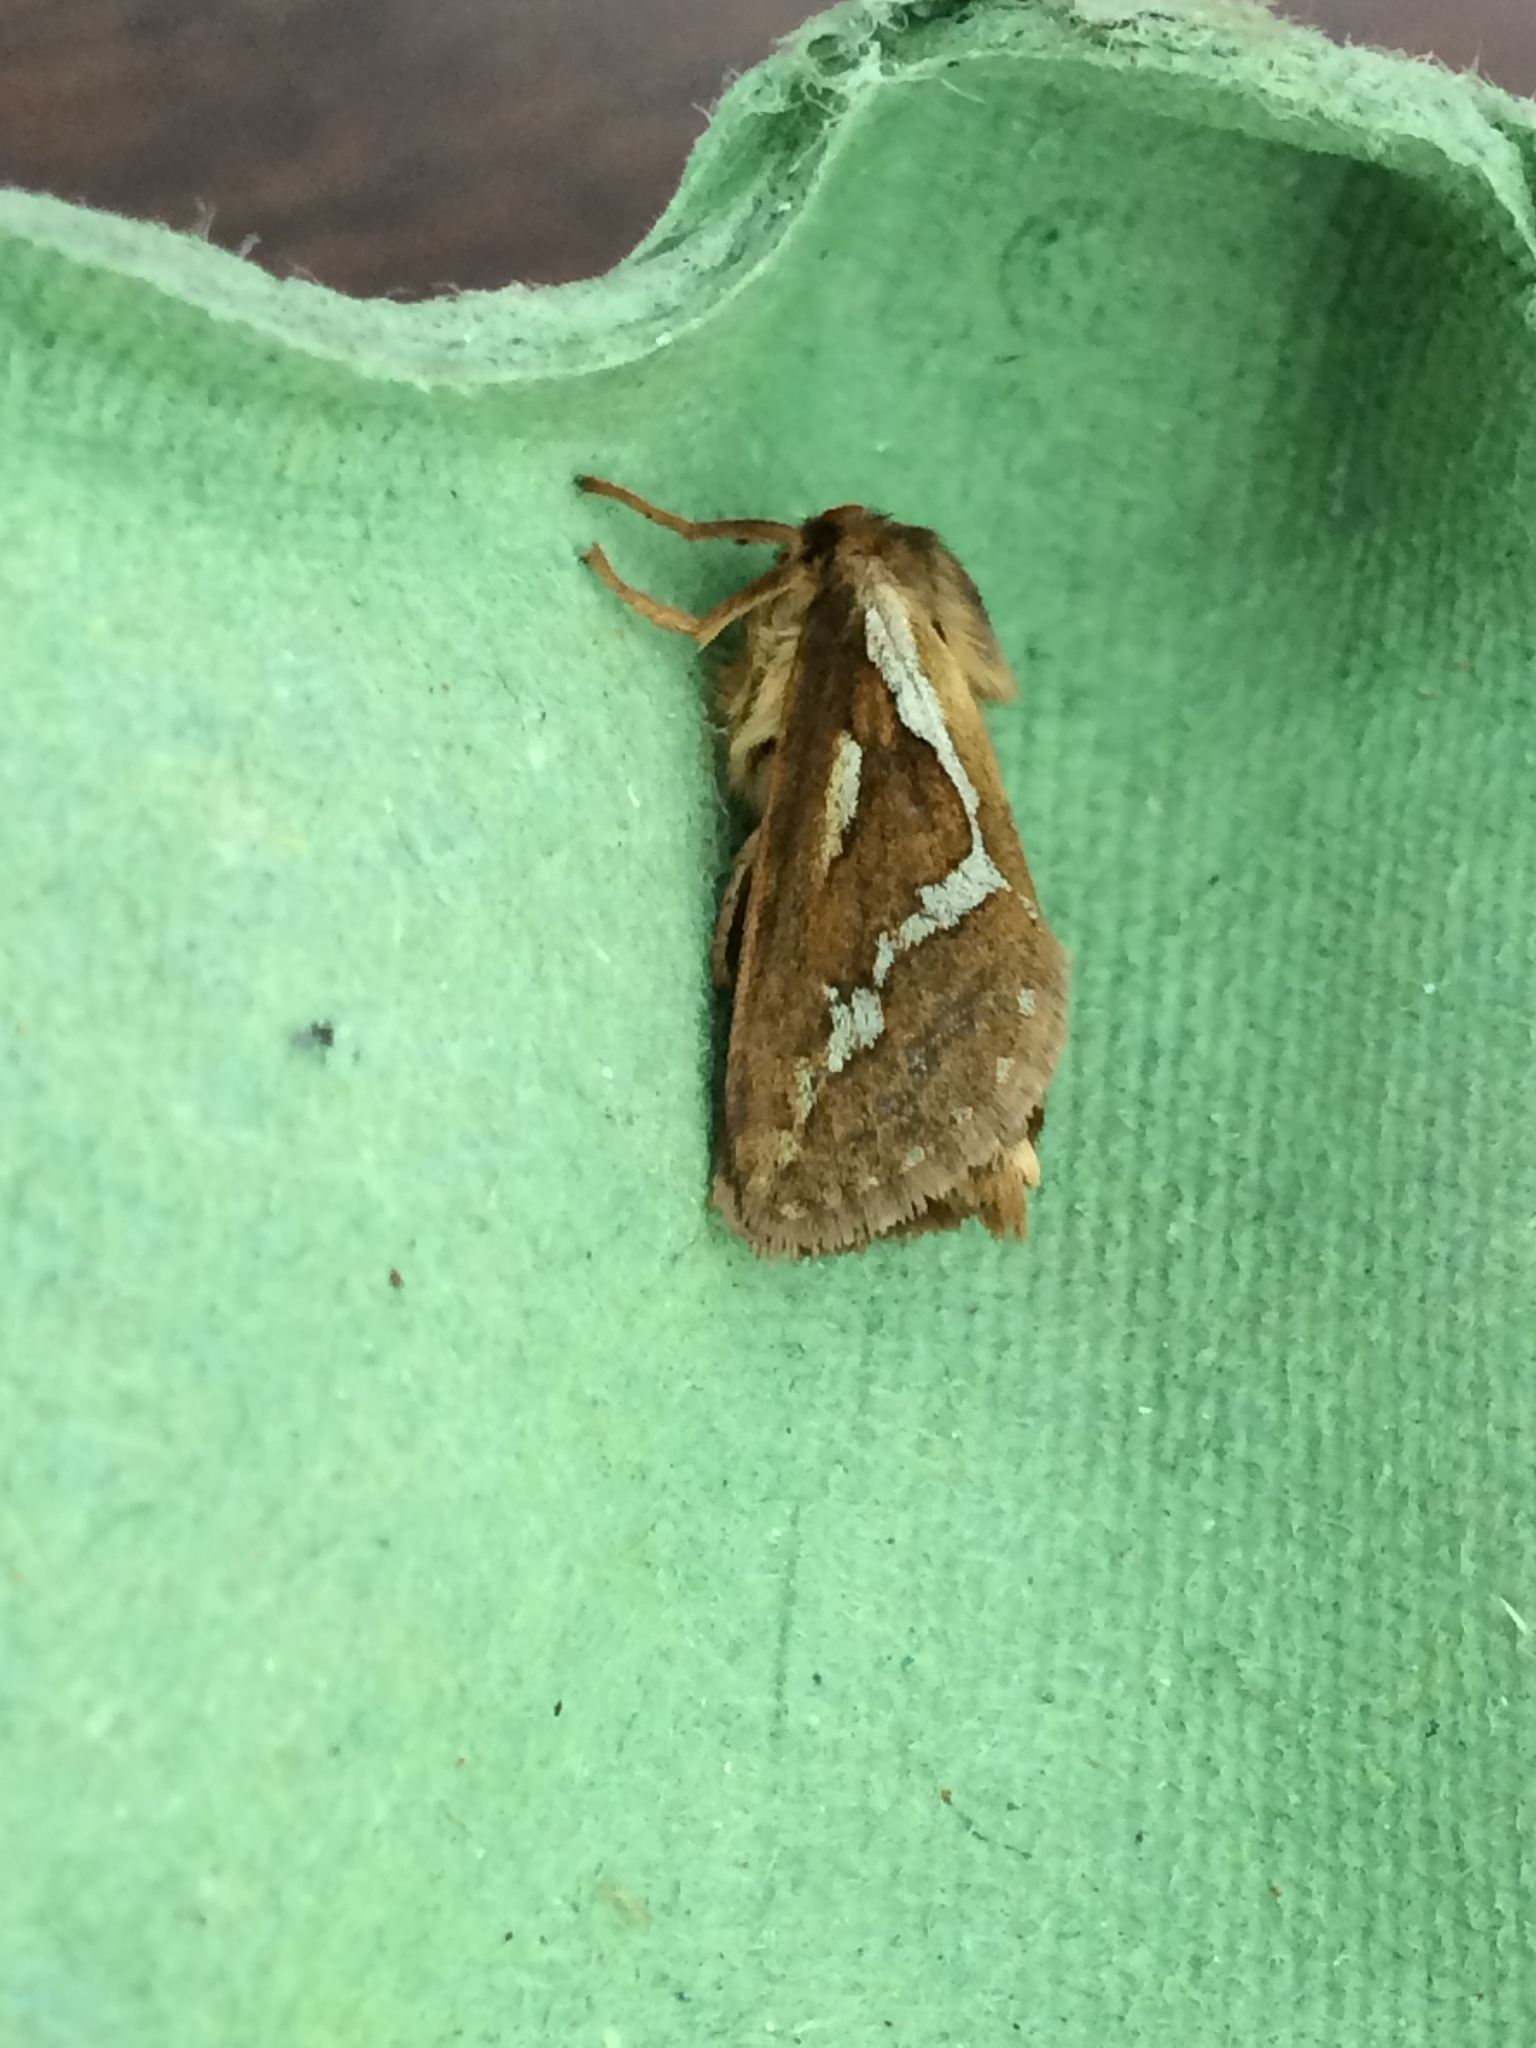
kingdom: Animalia
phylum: Arthropoda
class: Insecta
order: Lepidoptera
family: Hepialidae
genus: Korscheltellus
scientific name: Korscheltellus lupulina
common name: Common swift
